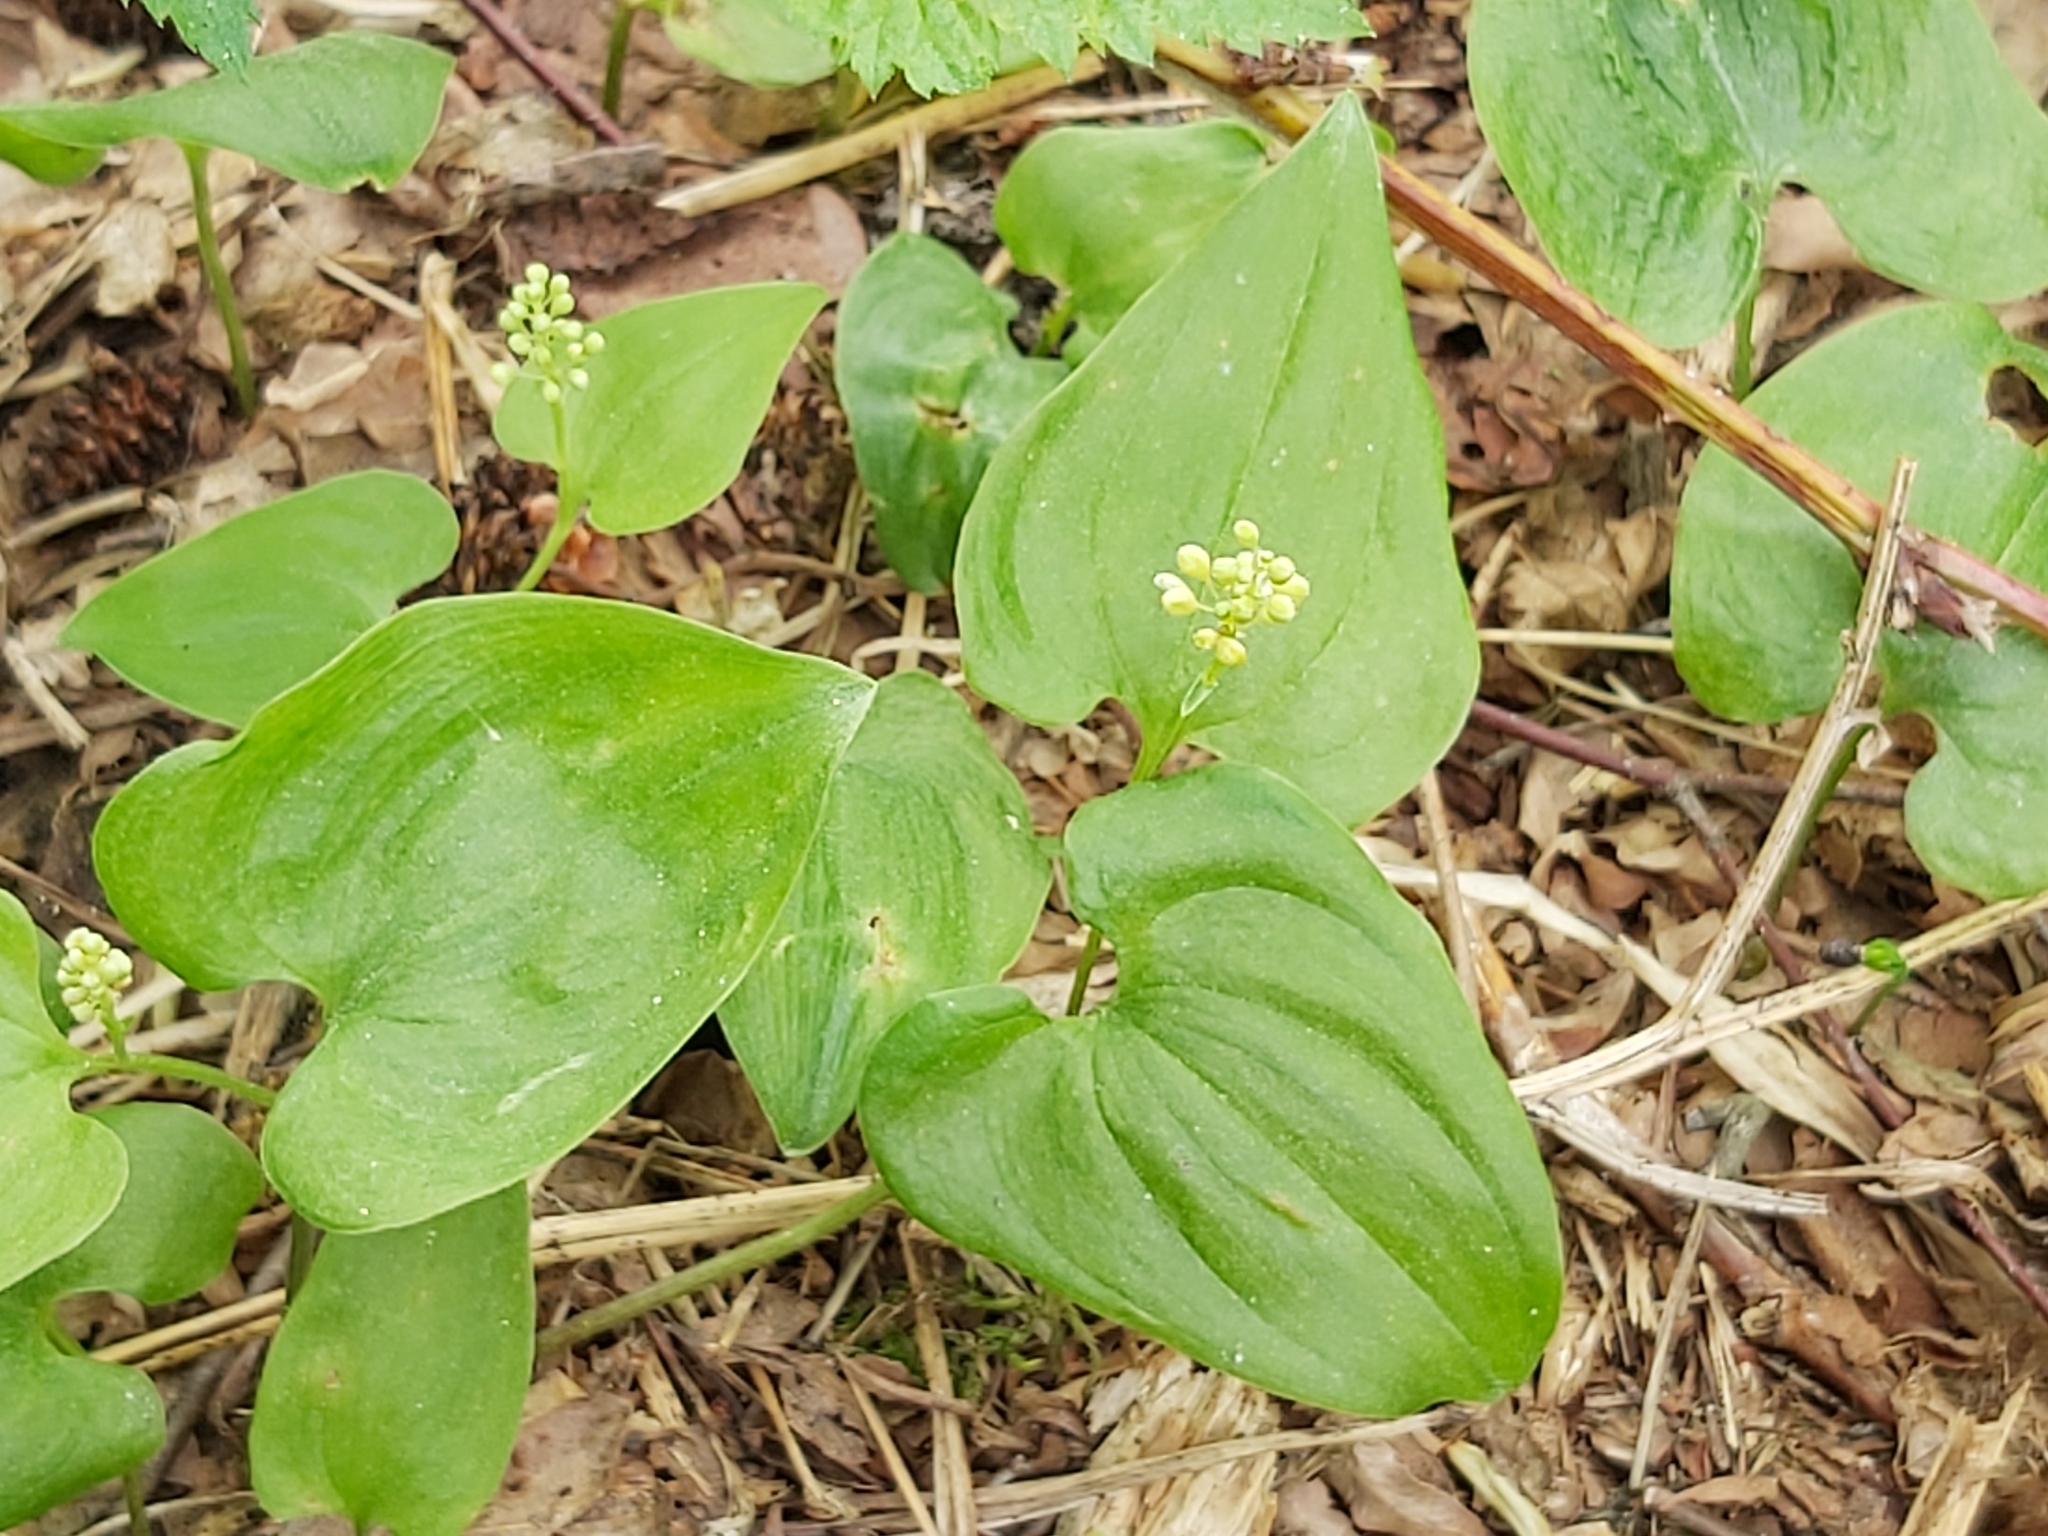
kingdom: Plantae
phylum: Tracheophyta
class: Liliopsida
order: Asparagales
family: Asparagaceae
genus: Maianthemum
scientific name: Maianthemum bifolium
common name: May lily
